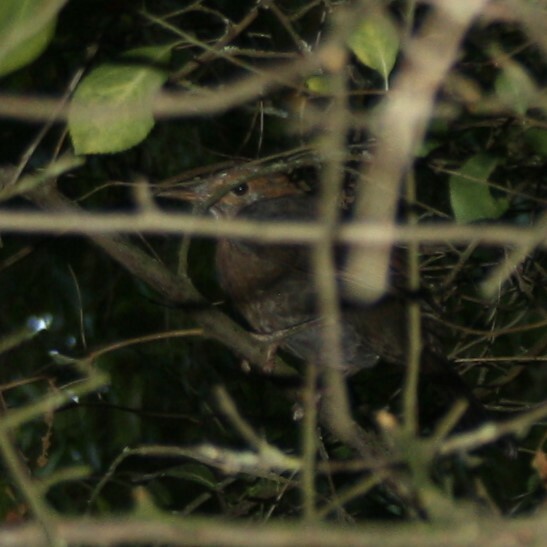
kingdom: Animalia
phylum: Chordata
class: Aves
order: Passeriformes
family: Sylviidae
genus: Sylvia
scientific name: Sylvia atricapilla
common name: Eurasian blackcap
